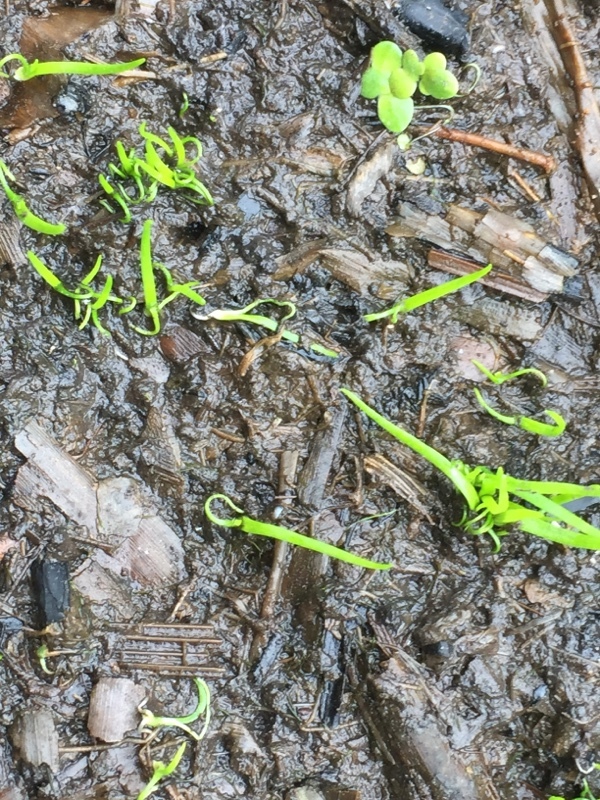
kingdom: Plantae
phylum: Tracheophyta
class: Polypodiopsida
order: Salviniales
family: Marsileaceae
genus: Pilularia
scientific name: Pilularia globulifera
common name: Pillwort
